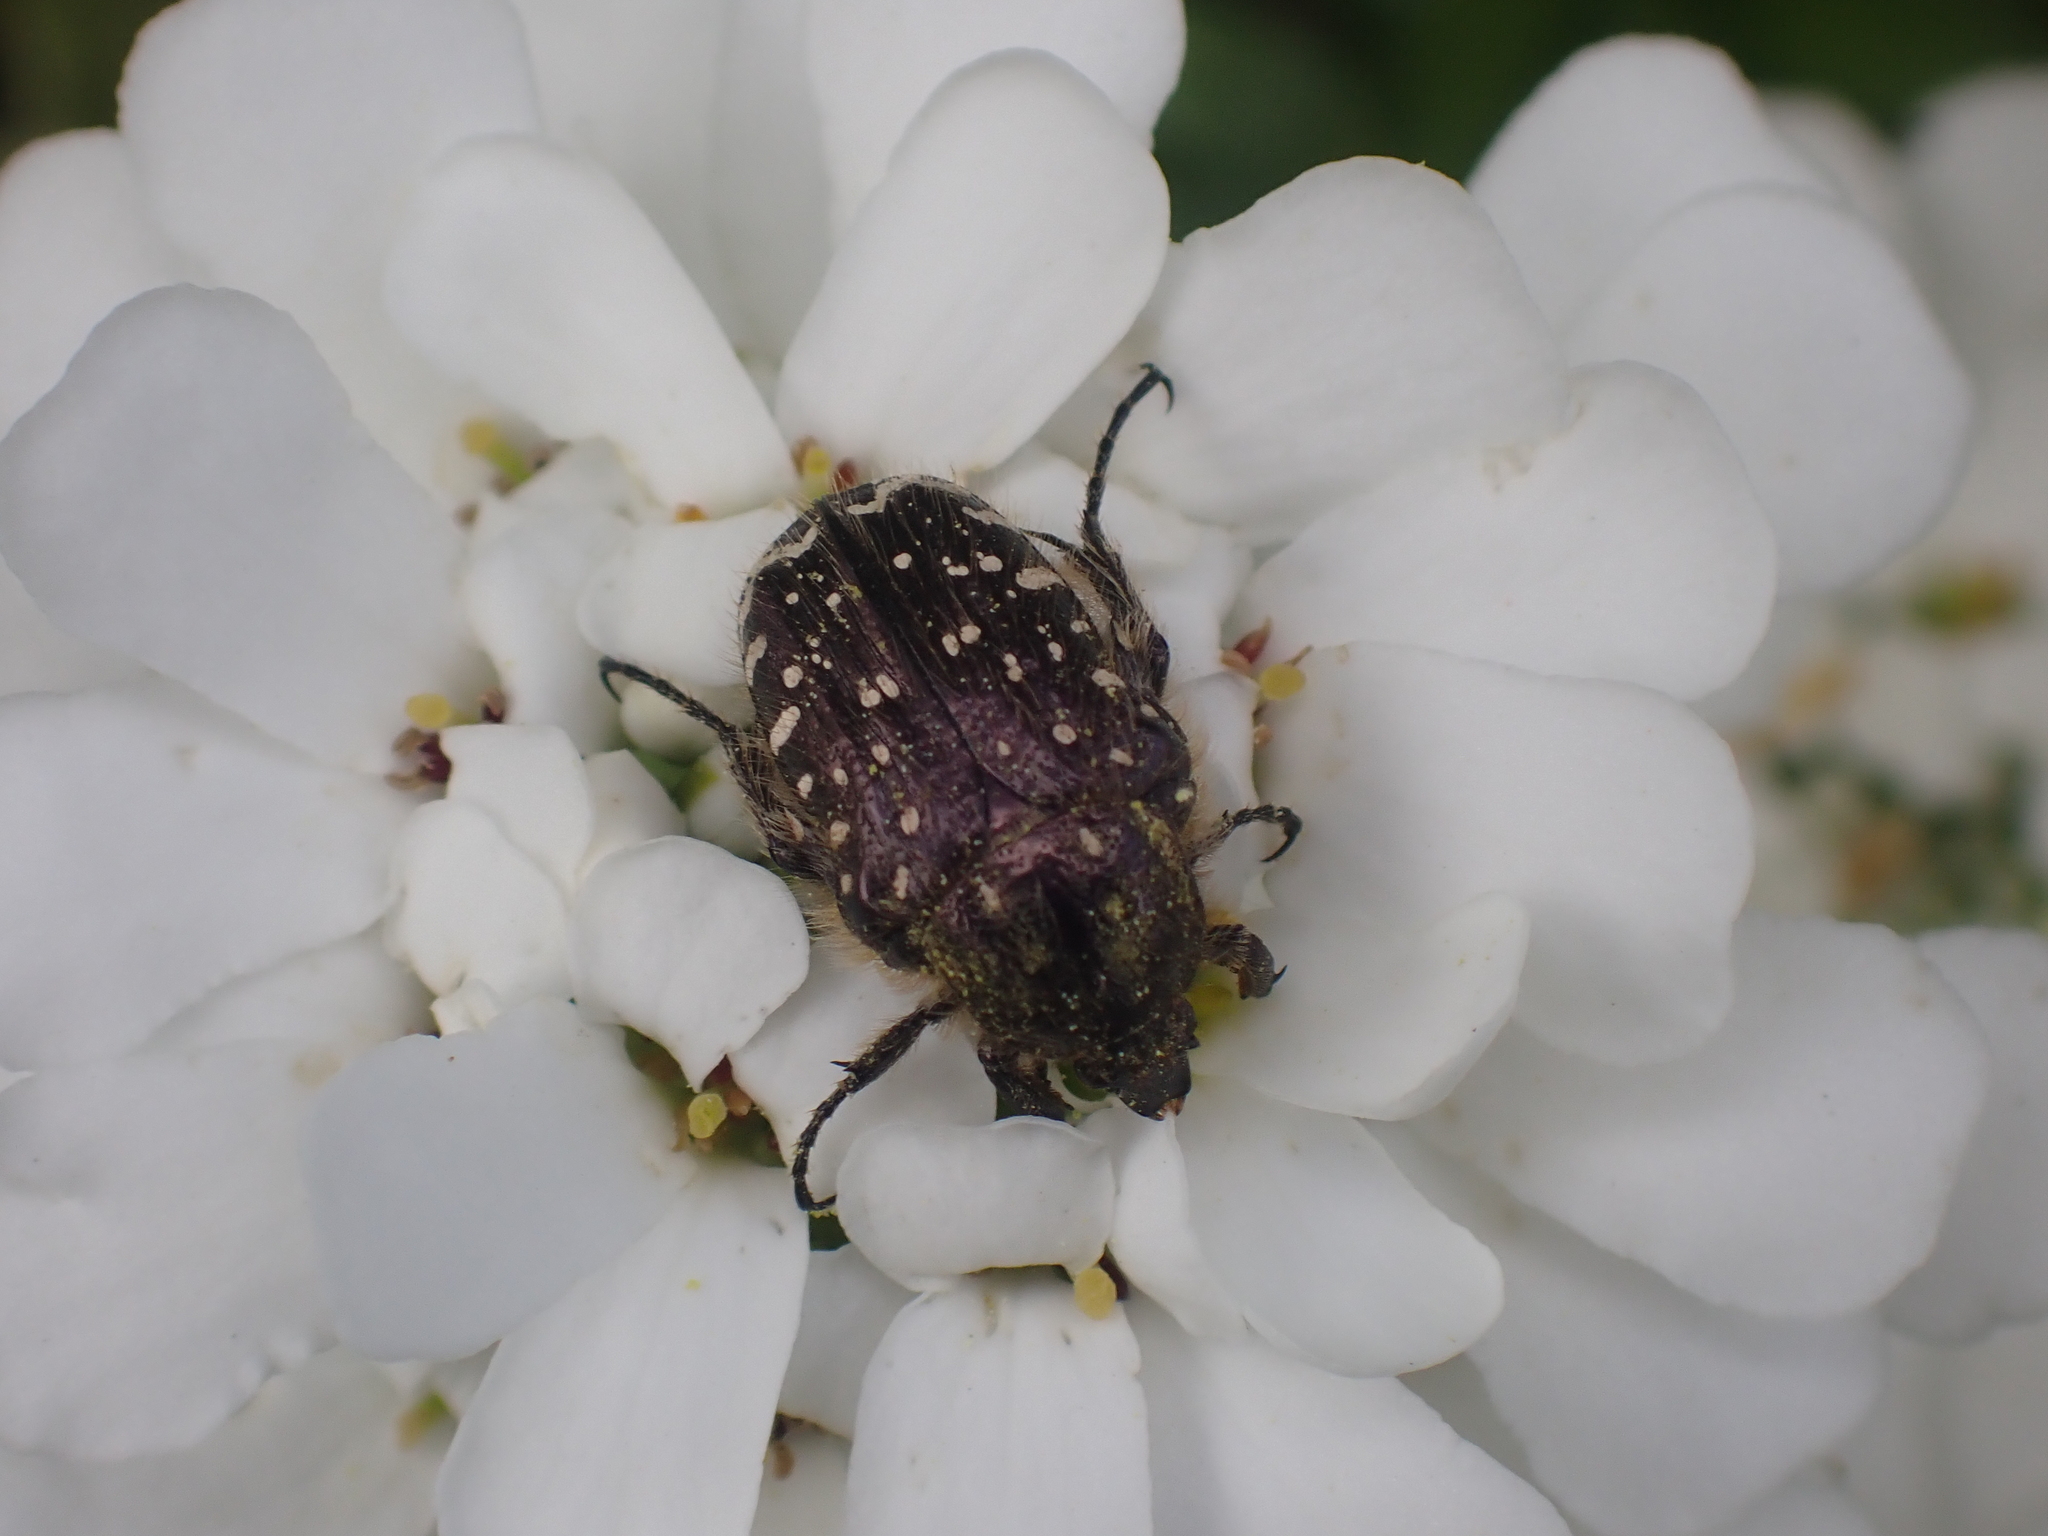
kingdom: Animalia
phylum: Arthropoda
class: Insecta
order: Coleoptera
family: Scarabaeidae
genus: Oxythyrea
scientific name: Oxythyrea funesta
